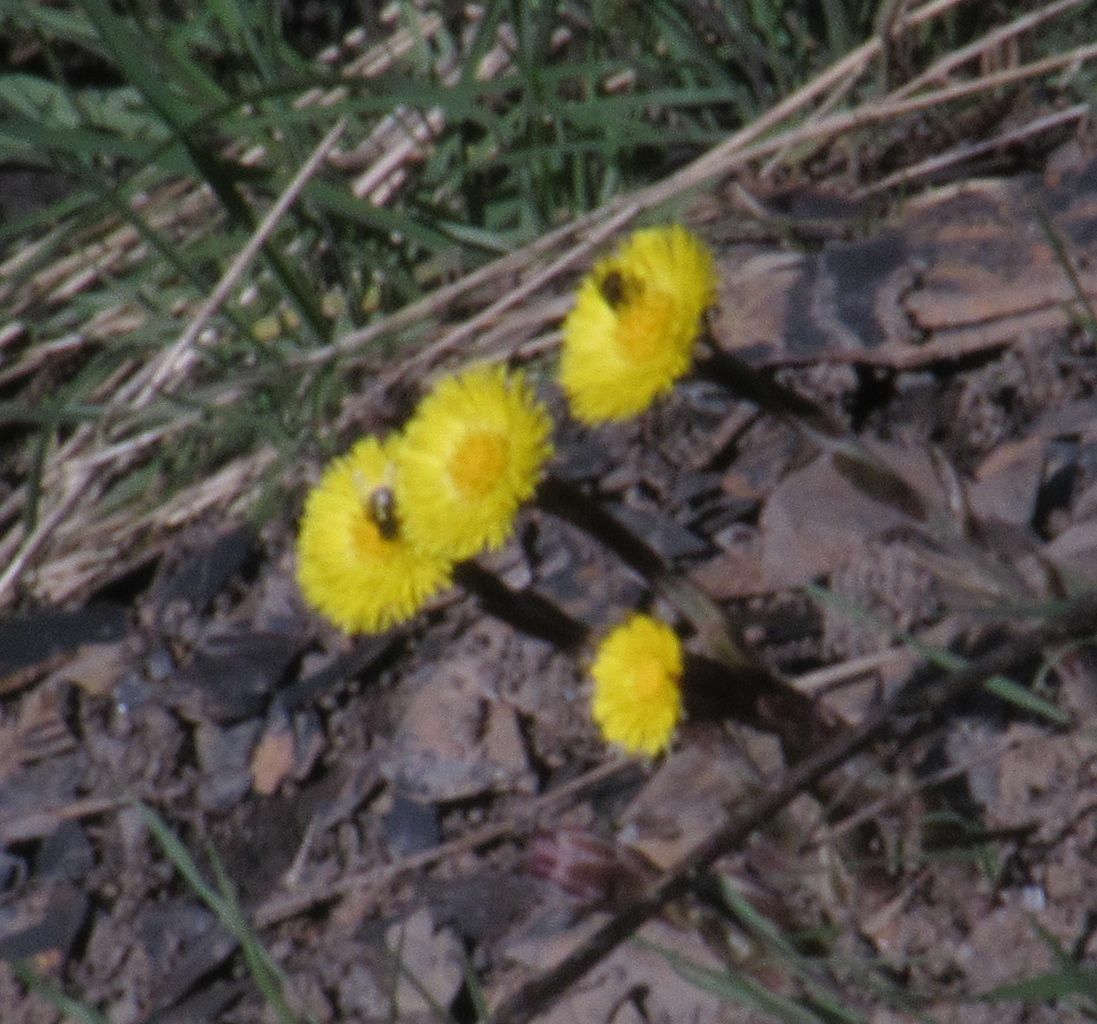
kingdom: Plantae
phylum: Tracheophyta
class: Magnoliopsida
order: Asterales
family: Asteraceae
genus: Tussilago
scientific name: Tussilago farfara
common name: Coltsfoot
